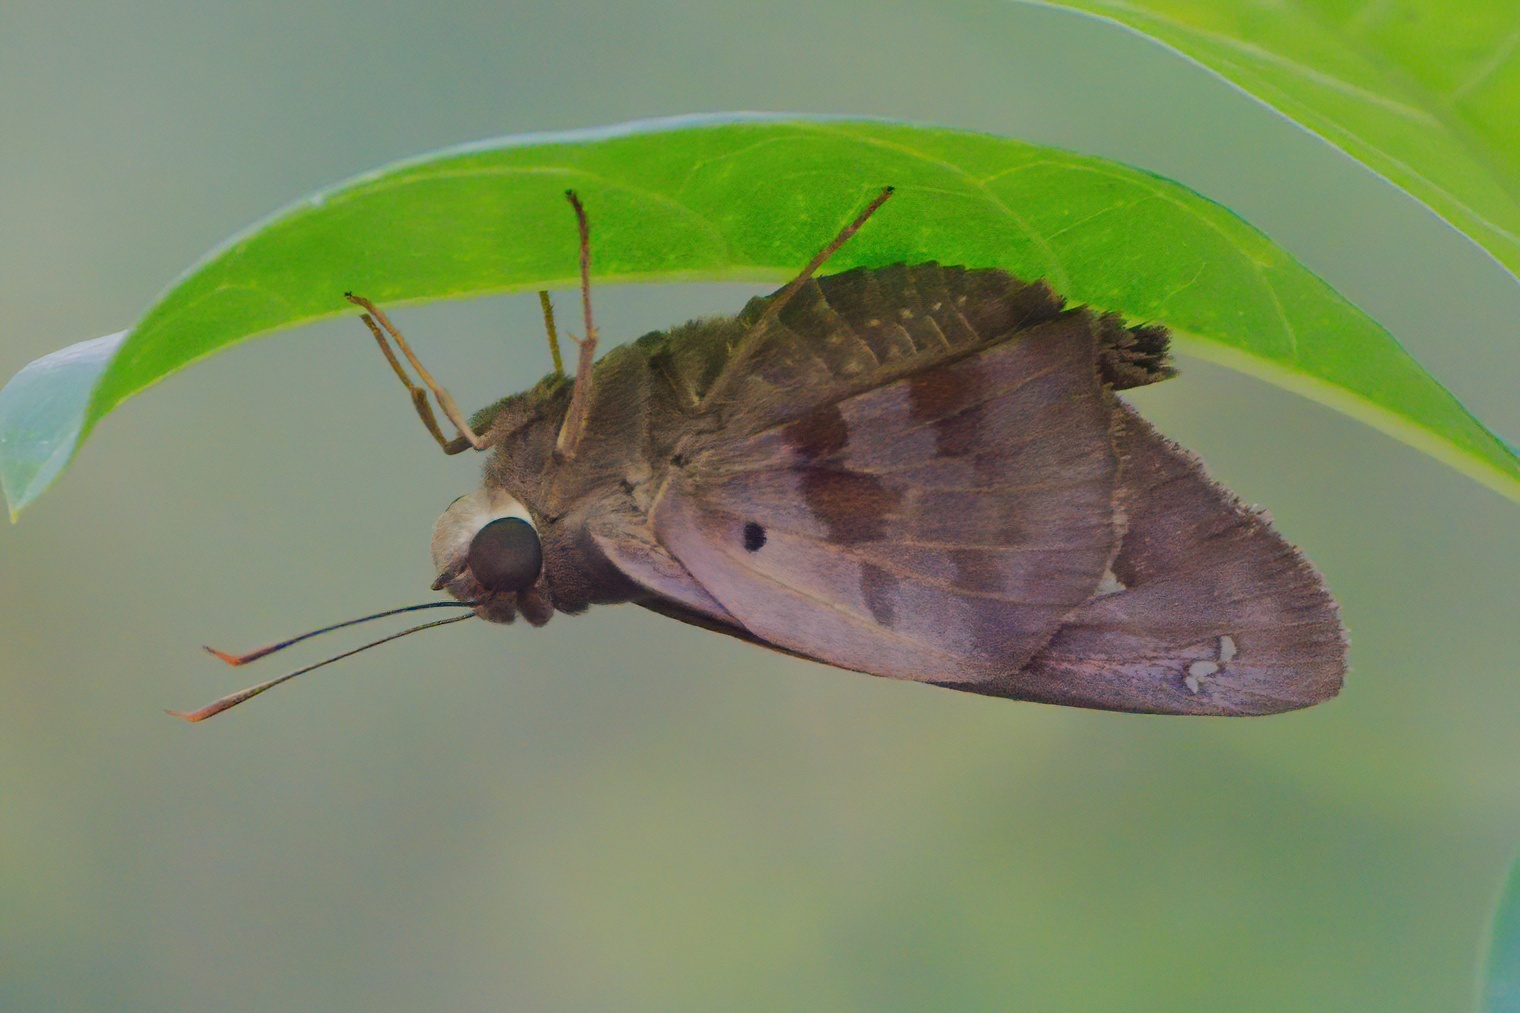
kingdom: Animalia
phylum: Arthropoda
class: Insecta
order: Lepidoptera
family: Hesperiidae
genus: Polygonus
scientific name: Polygonus leo
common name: Hammoch skipper
